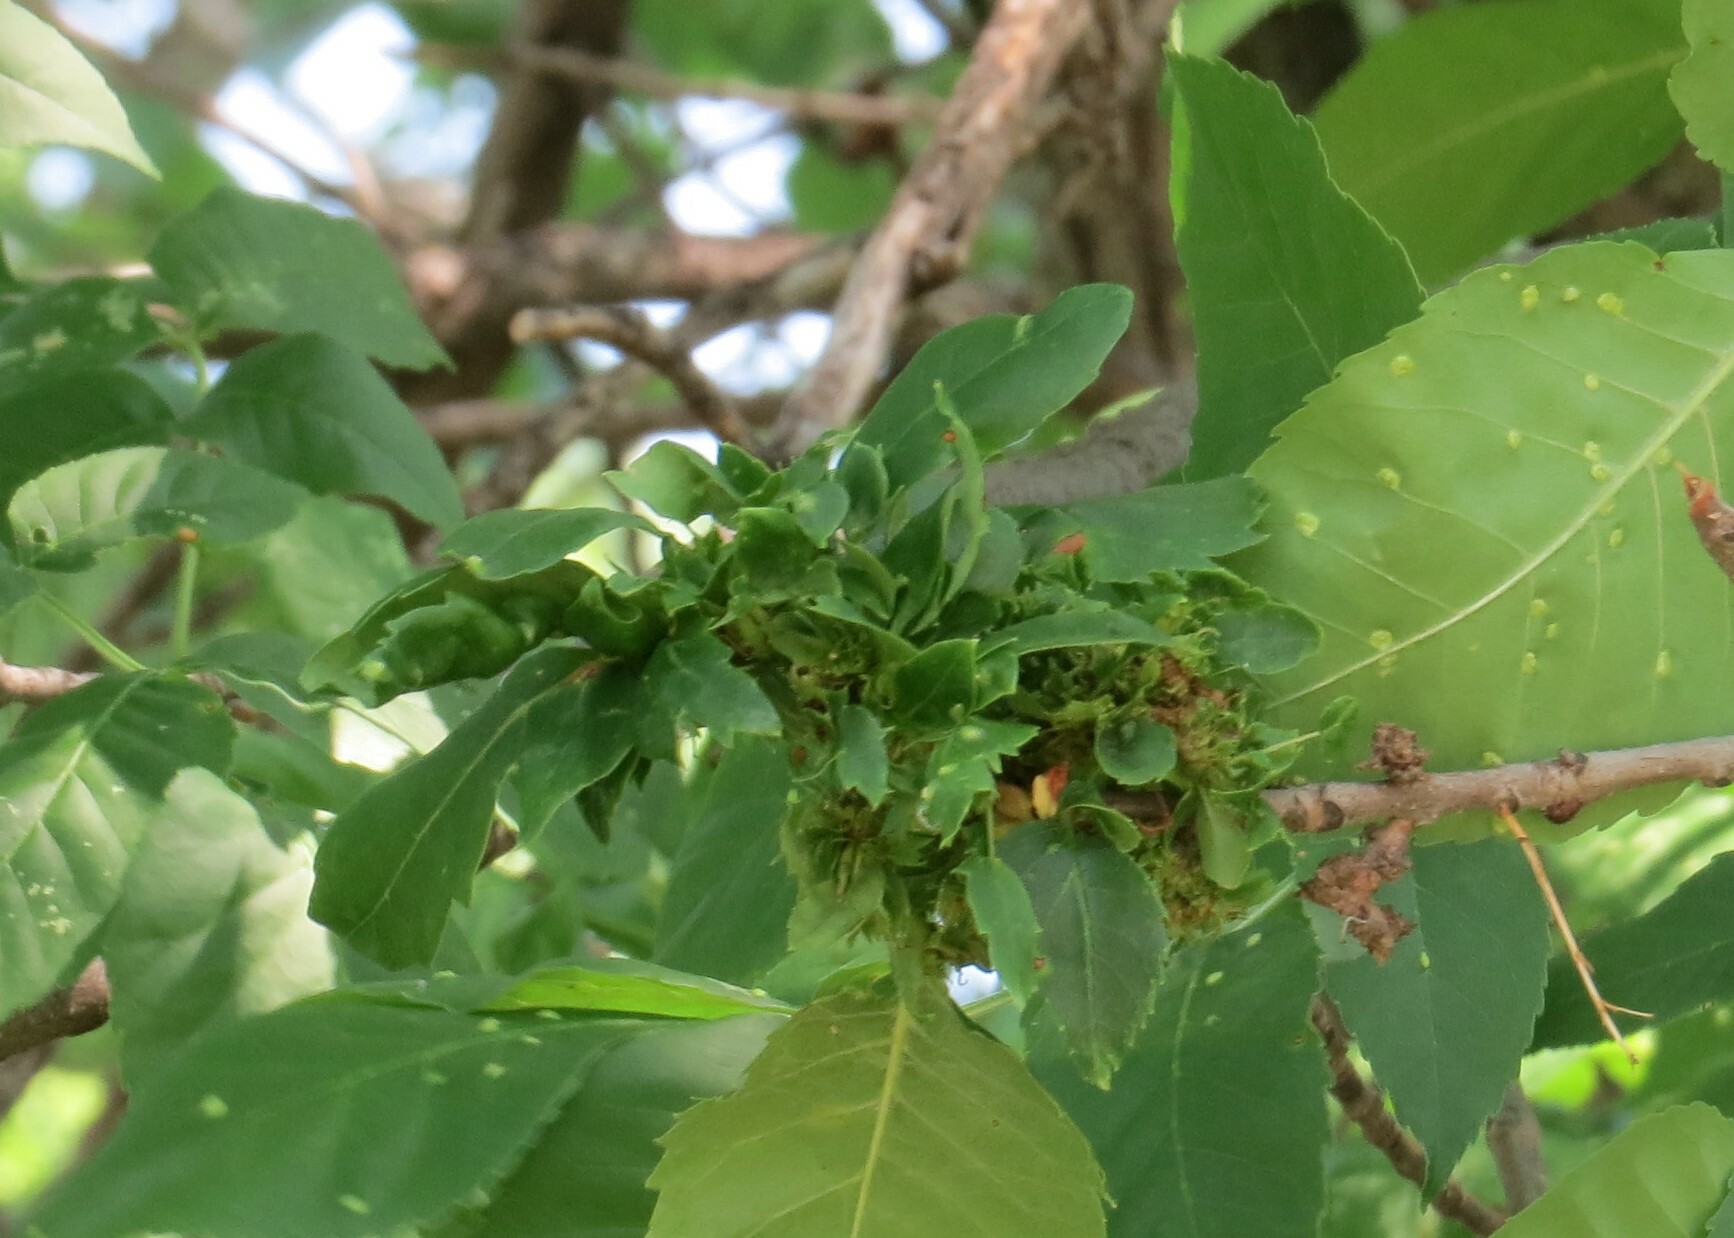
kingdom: Animalia
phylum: Arthropoda
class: Arachnida
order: Trombidiformes
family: Eriophyidae
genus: Aceria
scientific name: Aceria fraxiniflora
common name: Ash flower gall mite
